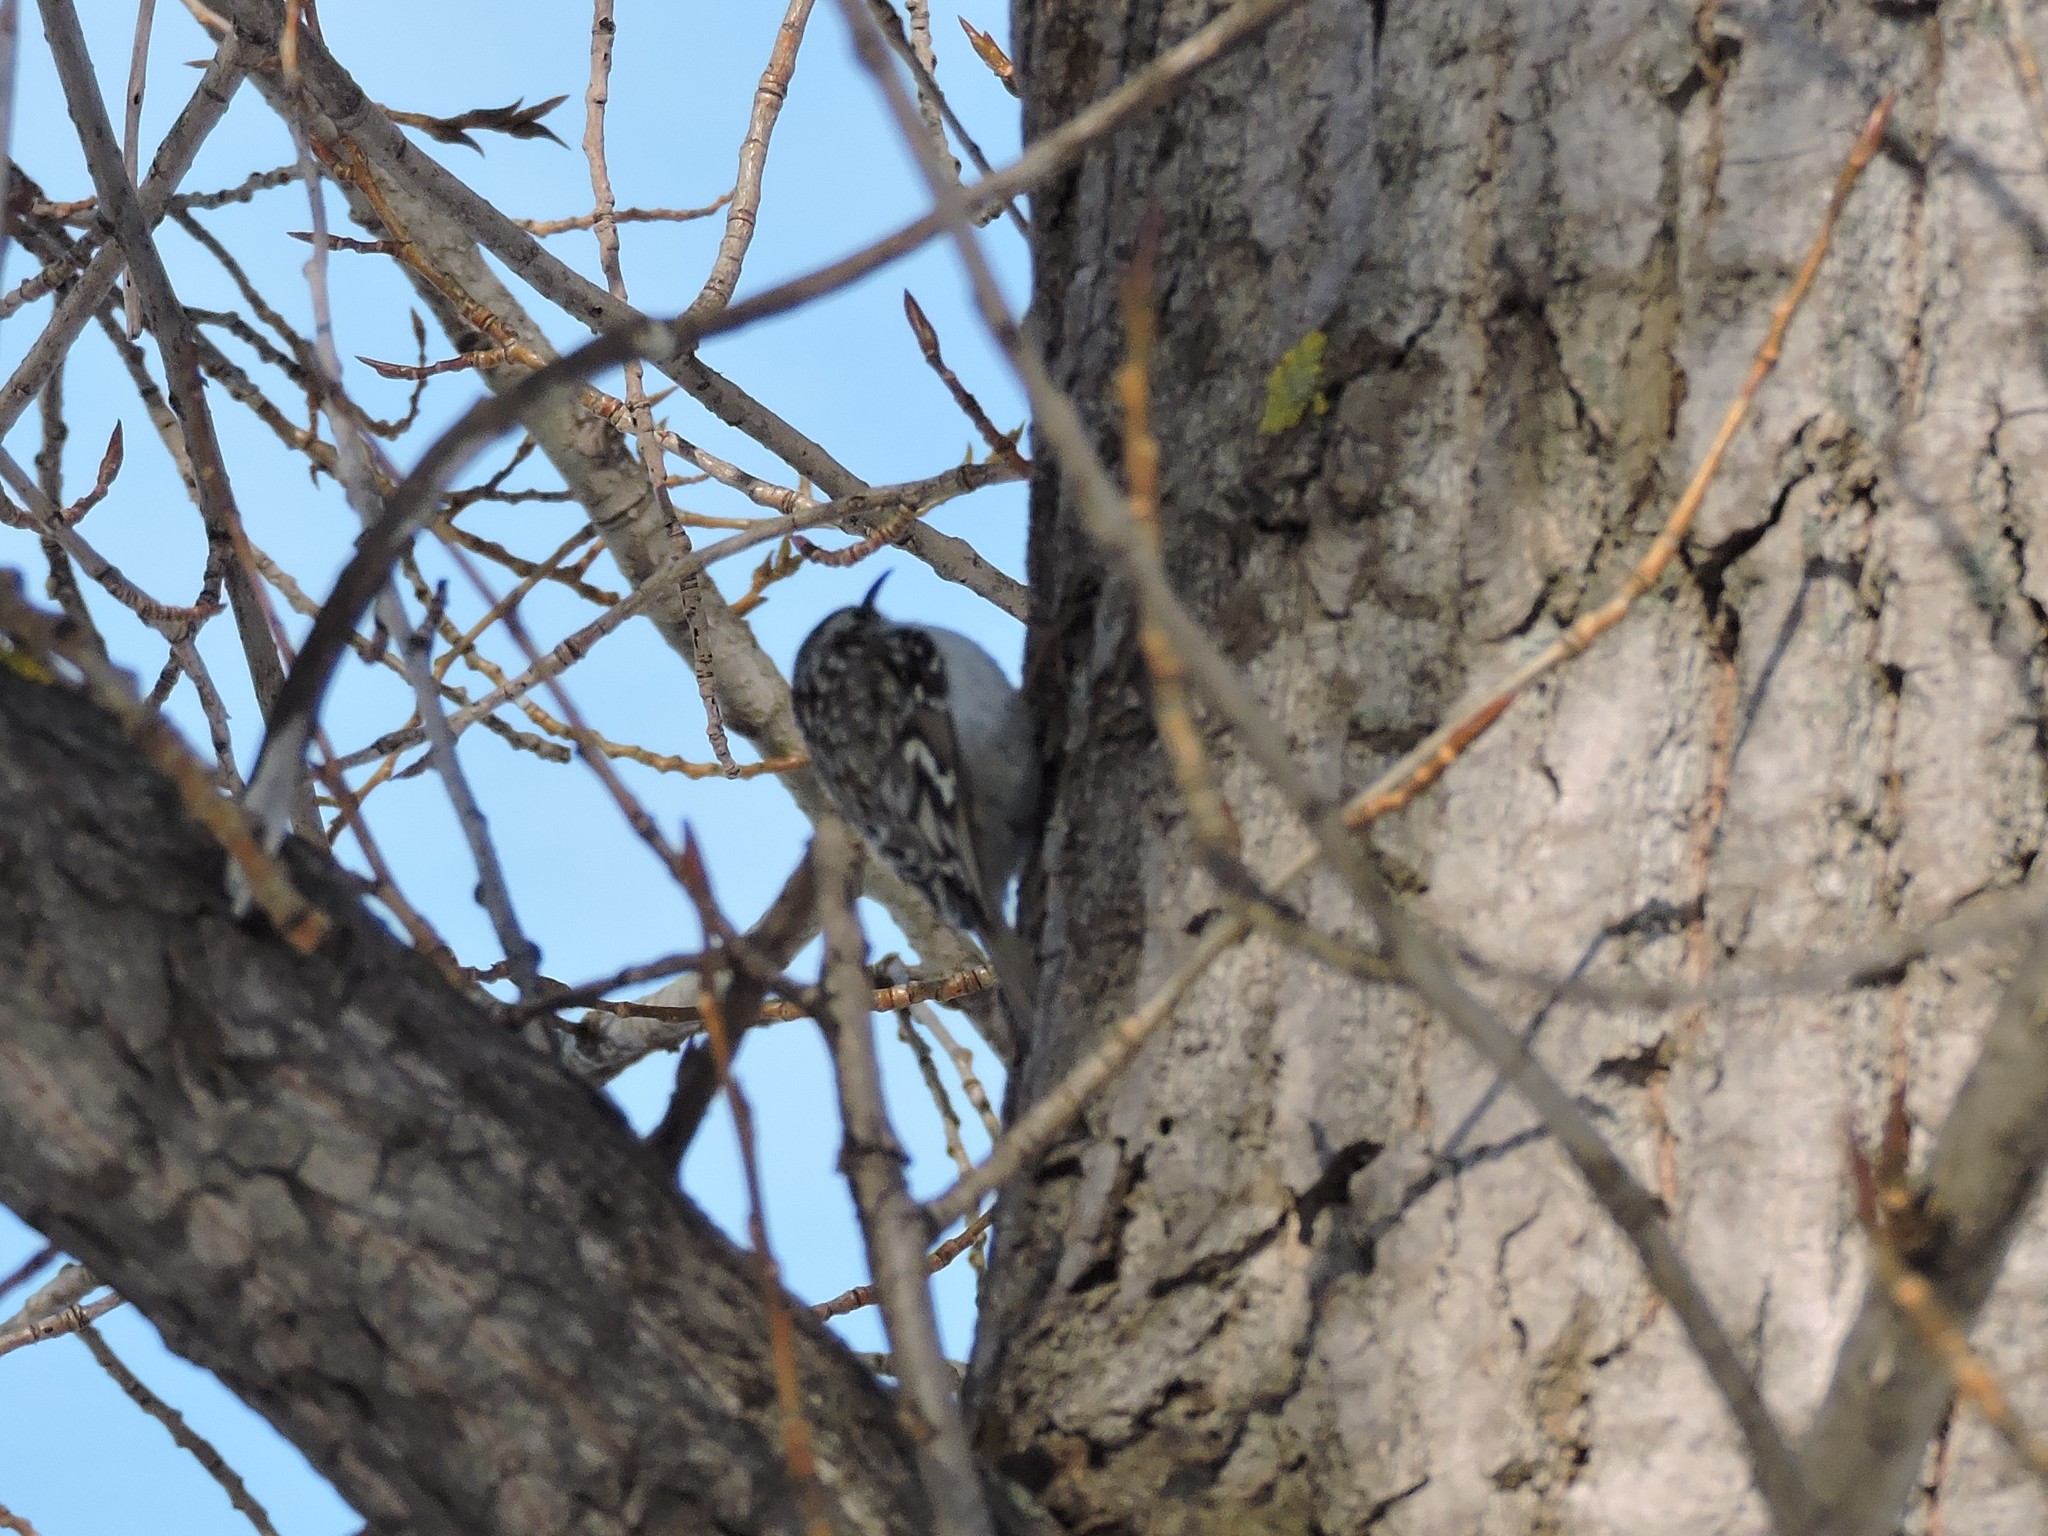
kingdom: Animalia
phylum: Chordata
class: Aves
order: Passeriformes
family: Certhiidae
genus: Certhia
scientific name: Certhia familiaris
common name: Eurasian treecreeper
